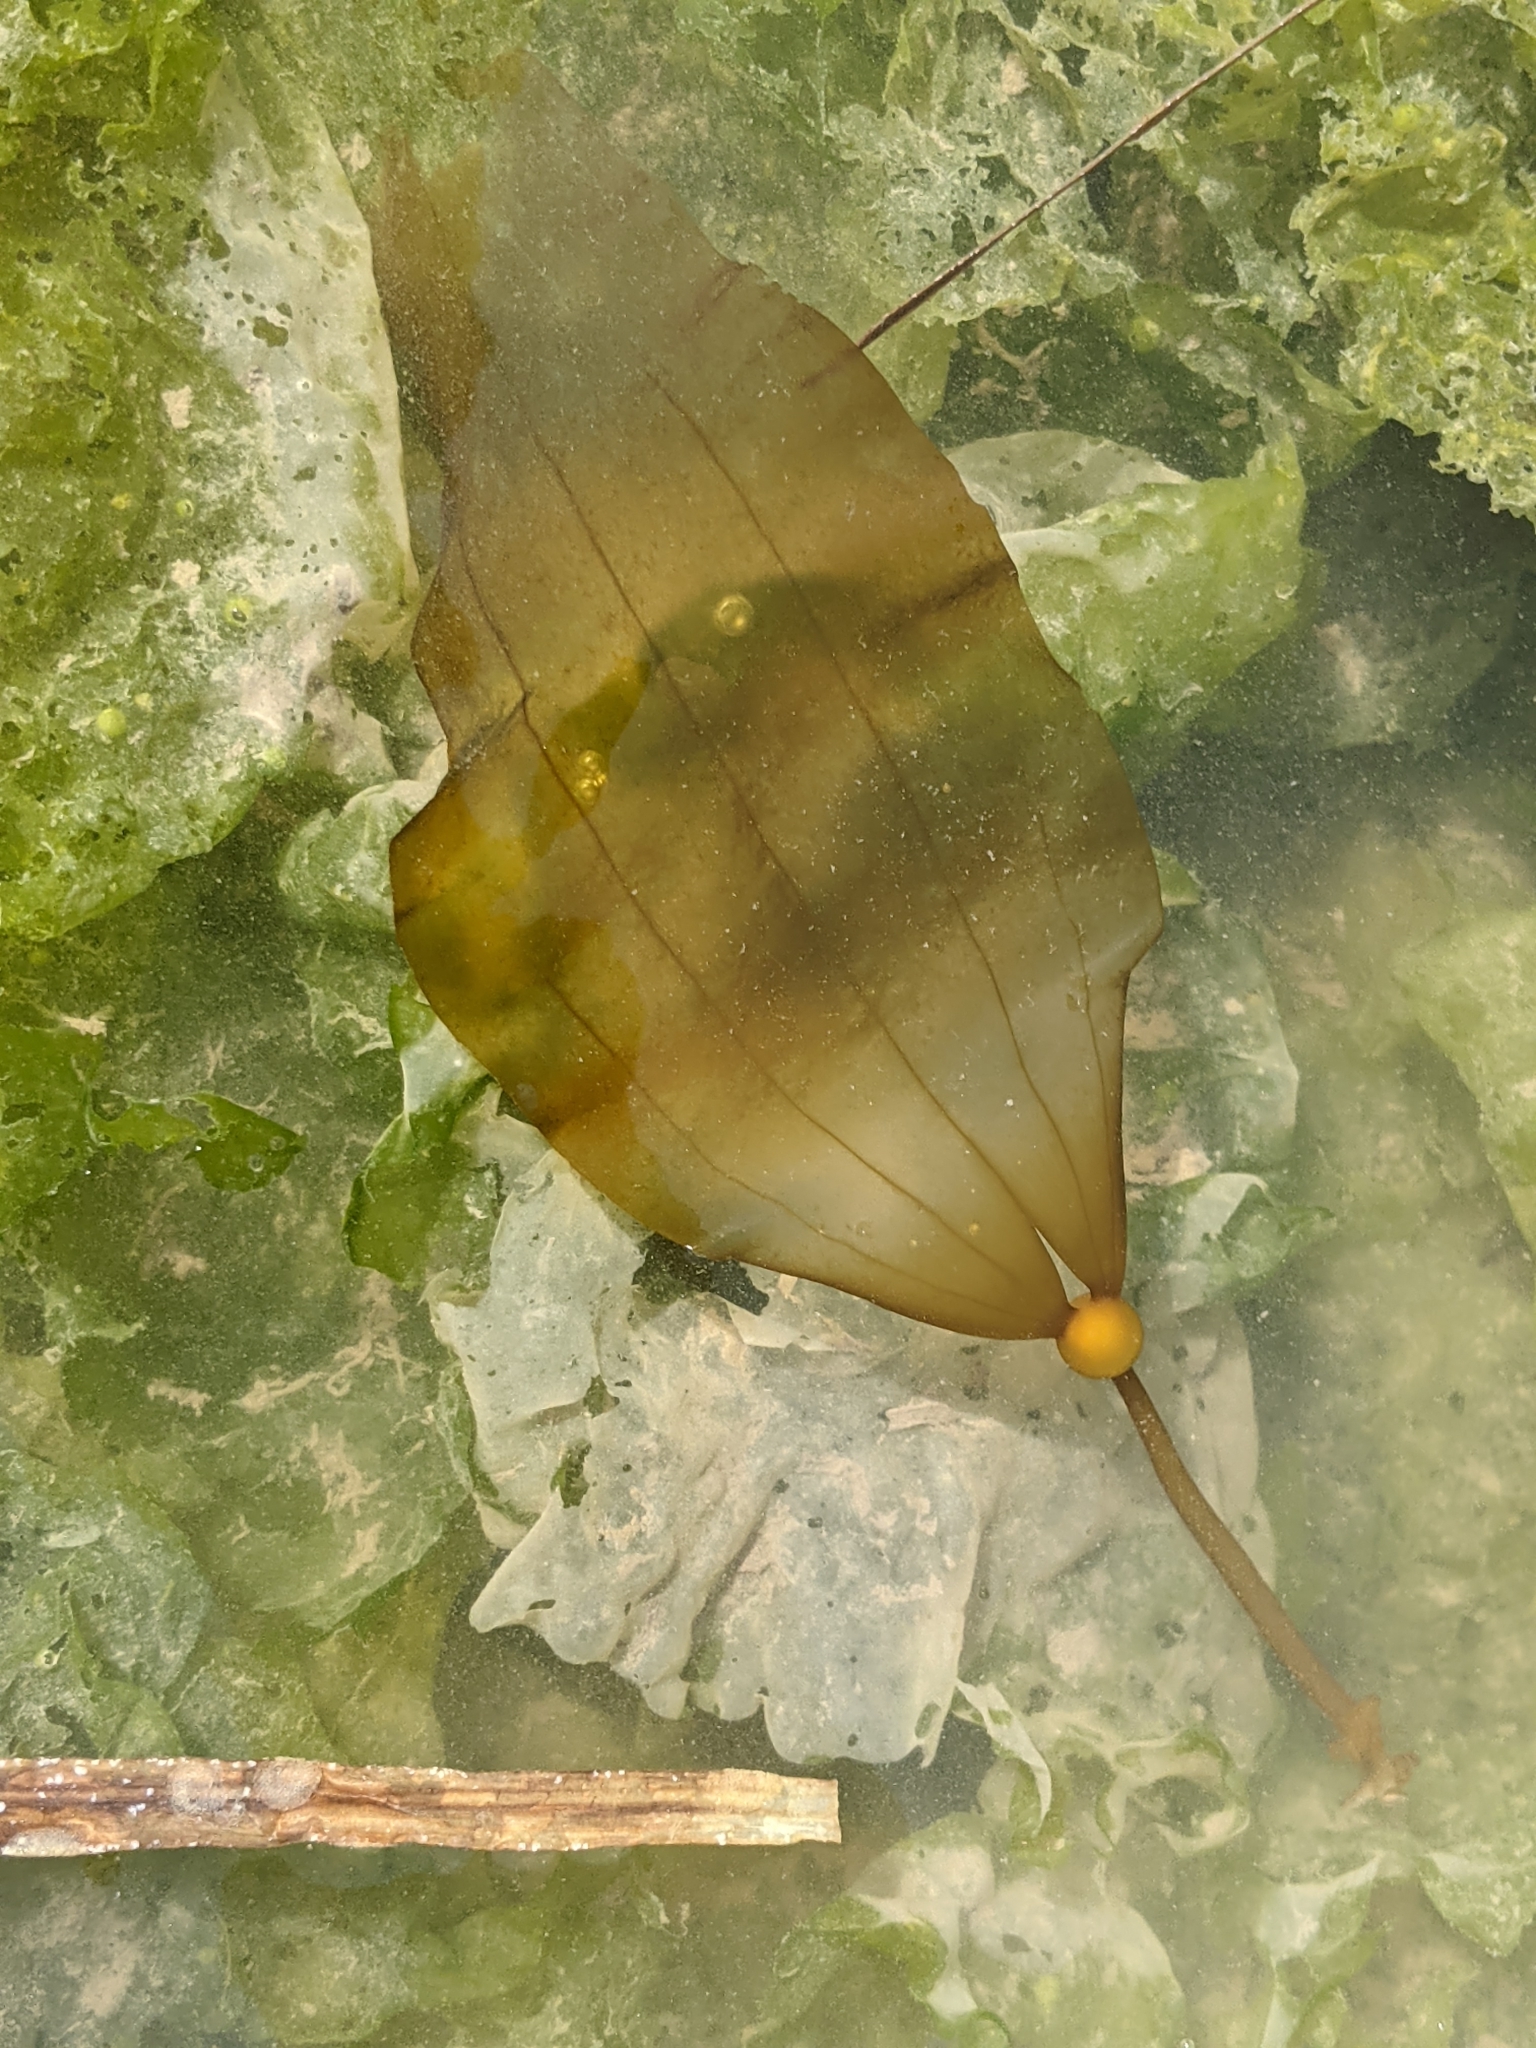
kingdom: Chromista
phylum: Ochrophyta
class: Phaeophyceae
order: Laminariales
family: Laminariaceae
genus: Nereocystis
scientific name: Nereocystis luetkeana
